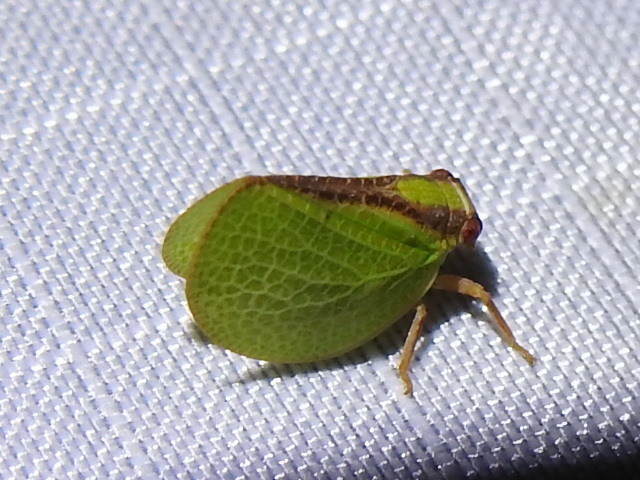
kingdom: Animalia
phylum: Arthropoda
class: Insecta
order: Hemiptera
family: Acanaloniidae
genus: Acanalonia
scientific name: Acanalonia bivittata
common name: Two-striped planthopper
